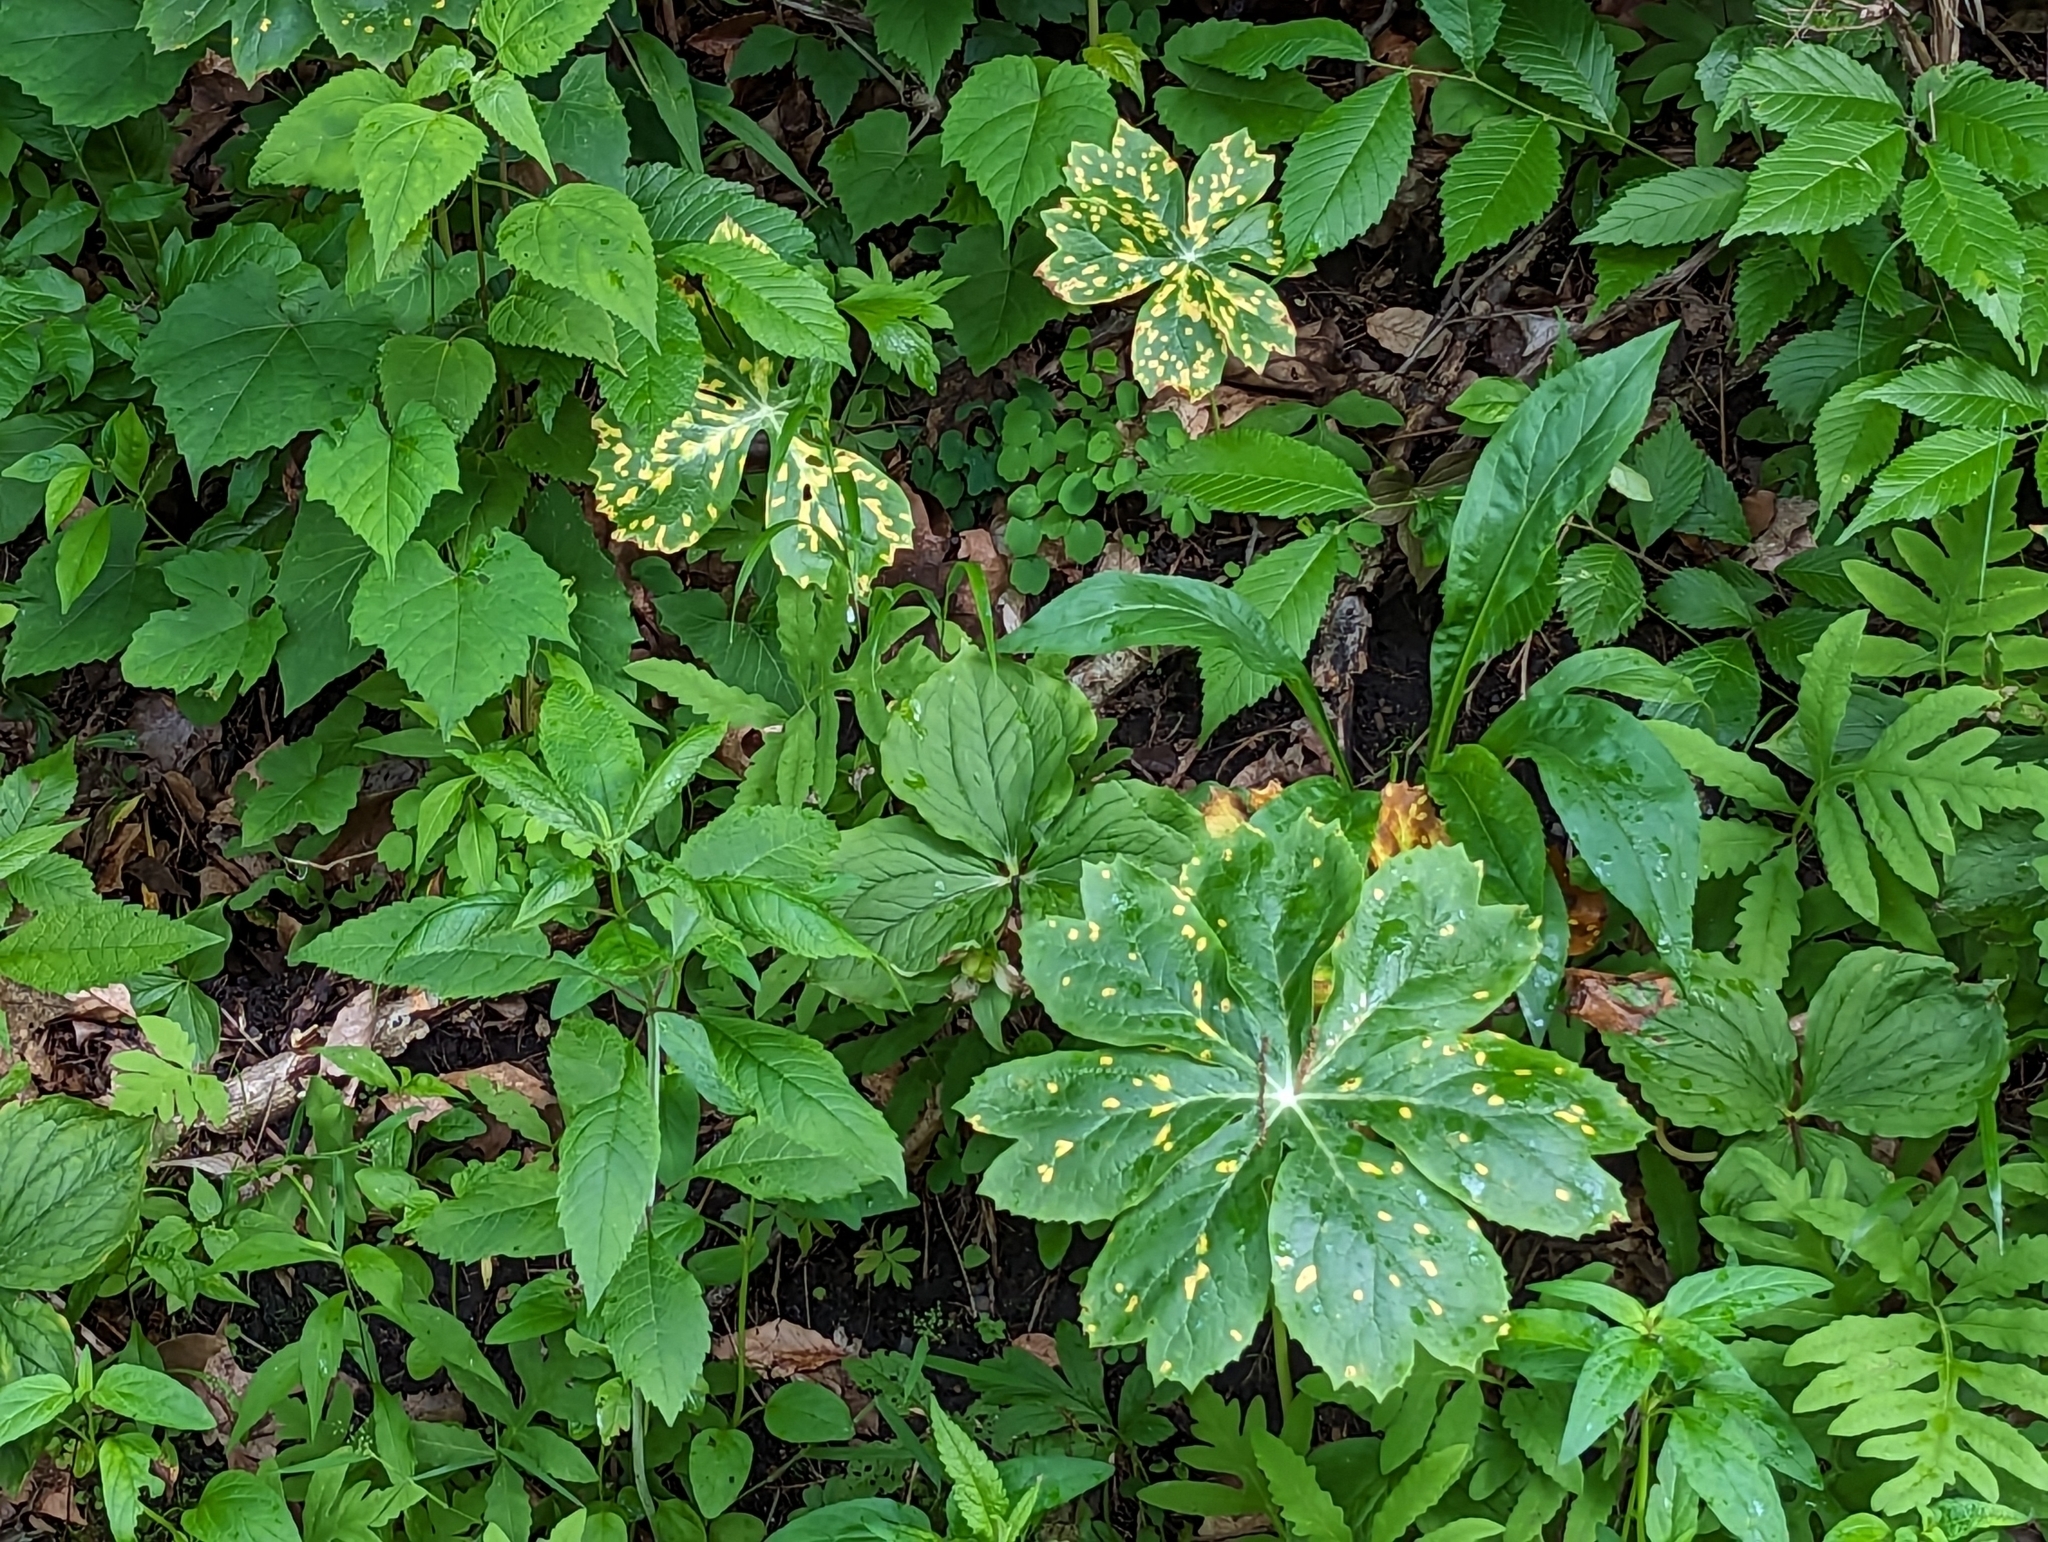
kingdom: Fungi
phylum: Basidiomycota
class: Pucciniomycetes
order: Pucciniales
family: Pucciniaceae
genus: Puccinia
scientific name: Puccinia podophylli
